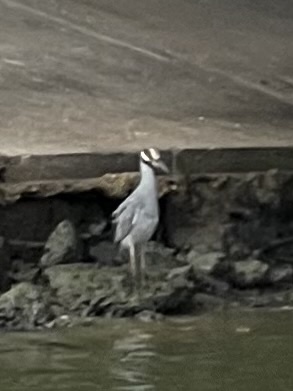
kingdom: Animalia
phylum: Chordata
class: Aves
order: Pelecaniformes
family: Ardeidae
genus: Nyctanassa
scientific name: Nyctanassa violacea
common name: Yellow-crowned night heron
